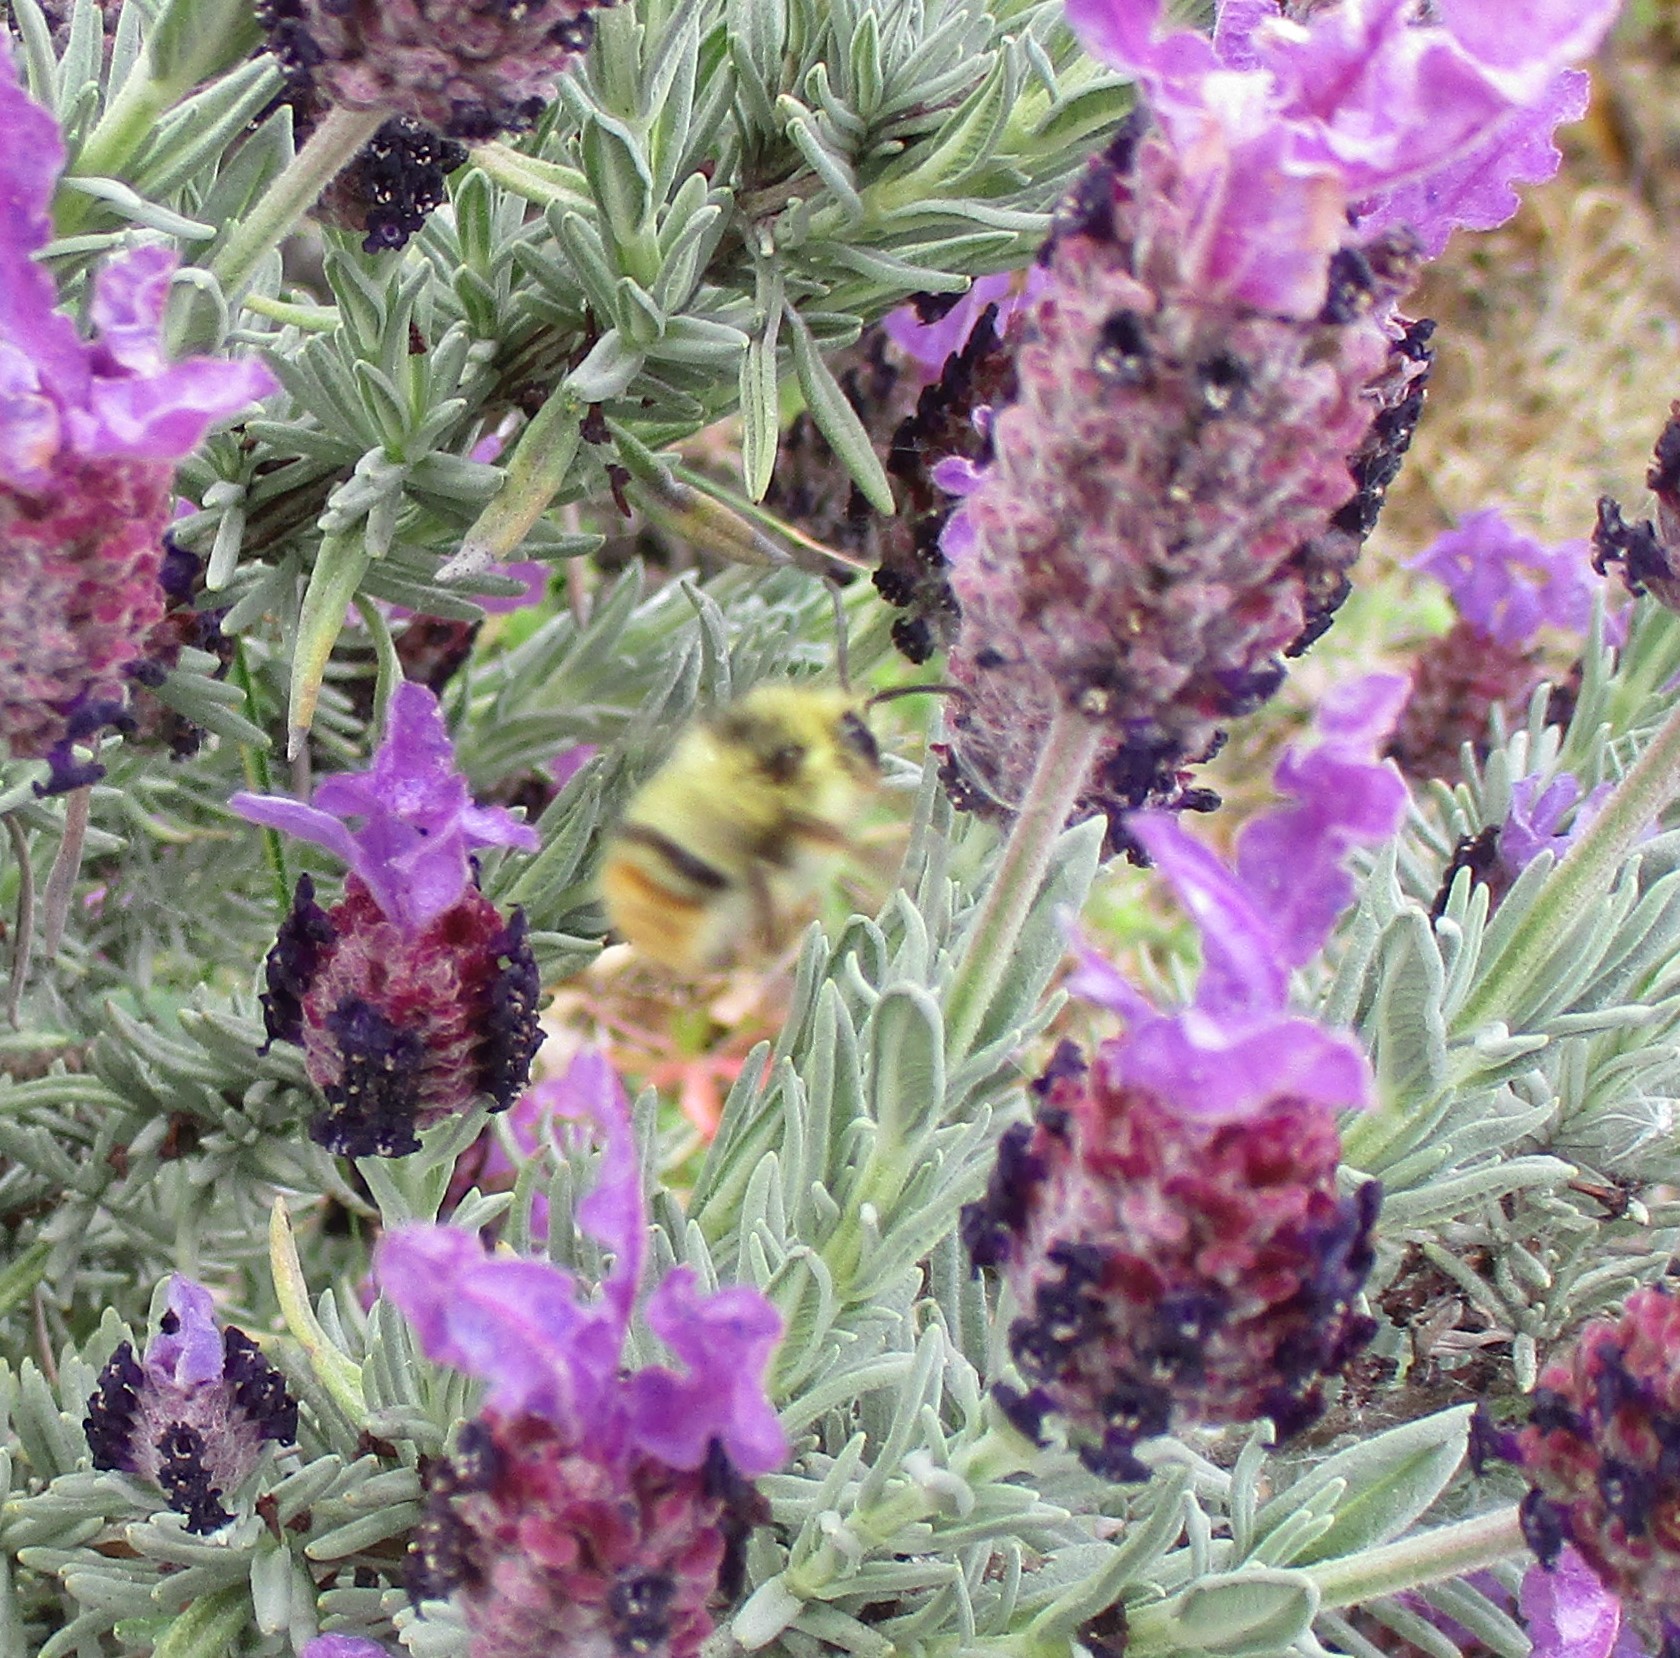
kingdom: Animalia
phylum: Arthropoda
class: Insecta
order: Hymenoptera
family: Apidae
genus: Bombus
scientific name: Bombus mixtus
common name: Fuzzy-horned bumble bee
